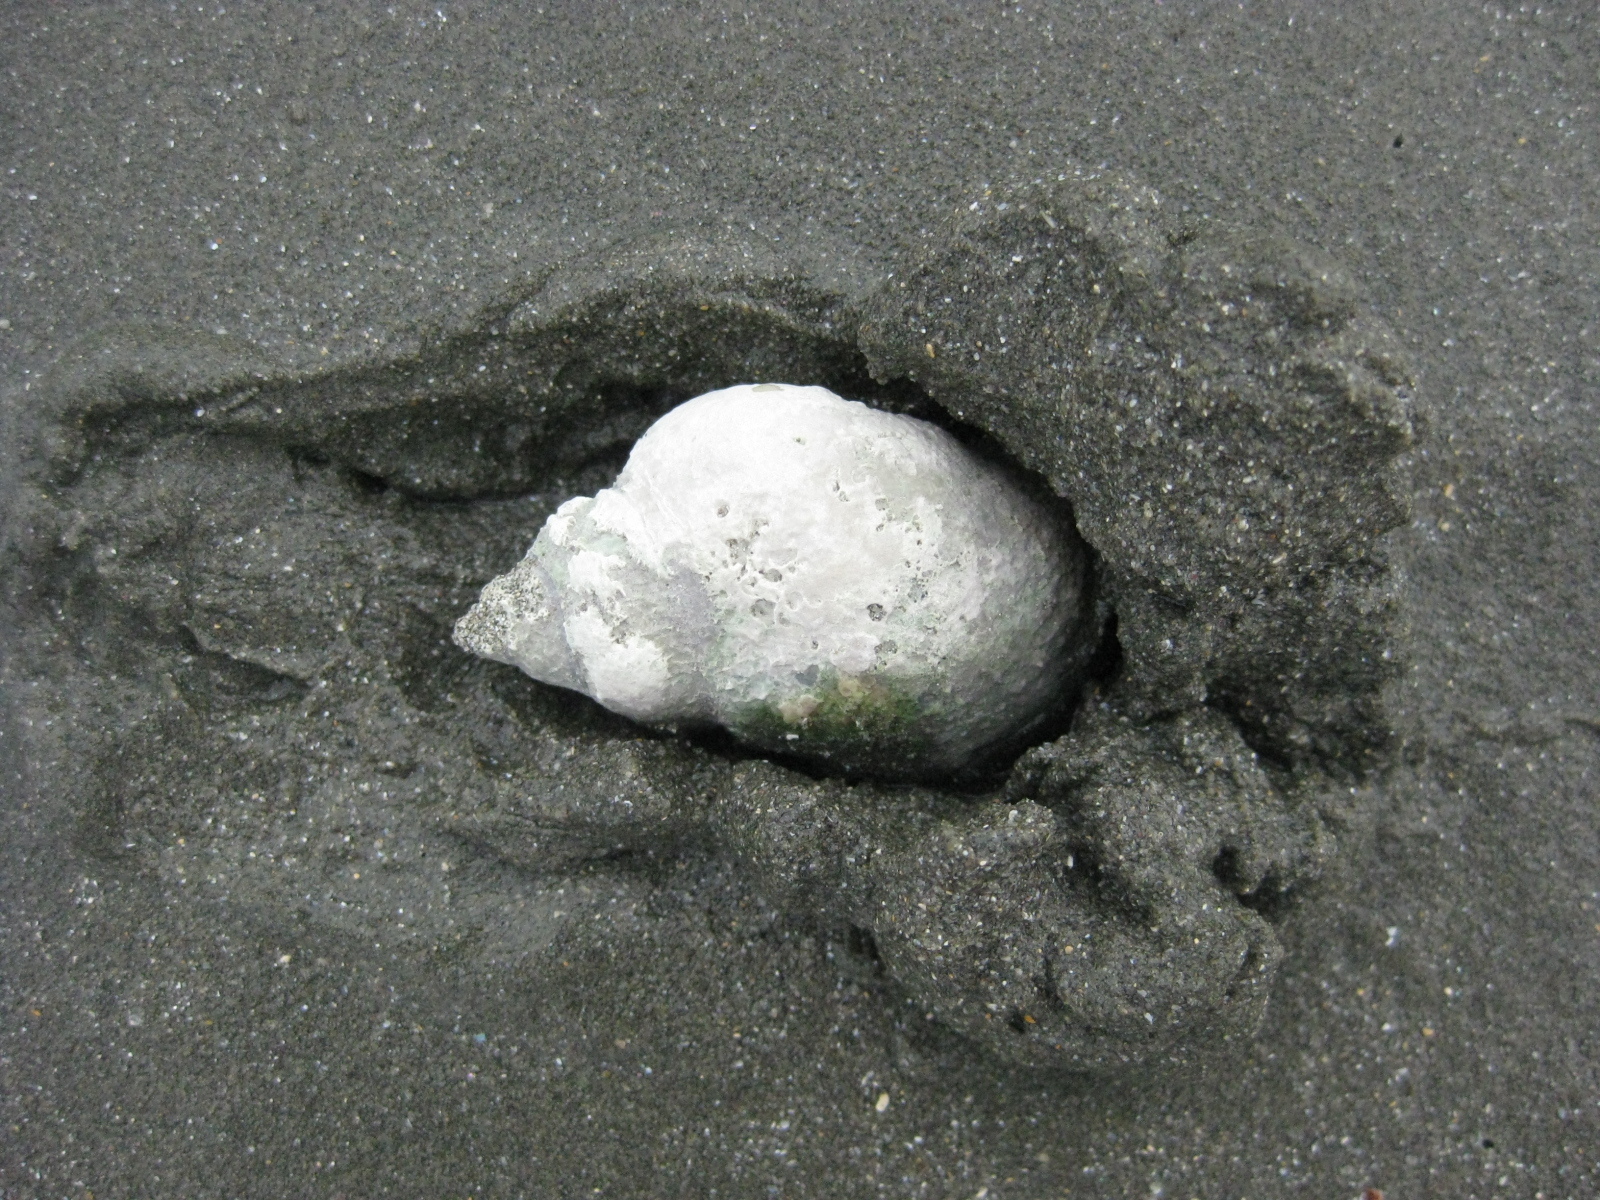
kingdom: Animalia
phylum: Mollusca
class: Gastropoda
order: Neogastropoda
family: Cominellidae
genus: Cominella
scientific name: Cominella adspersa
